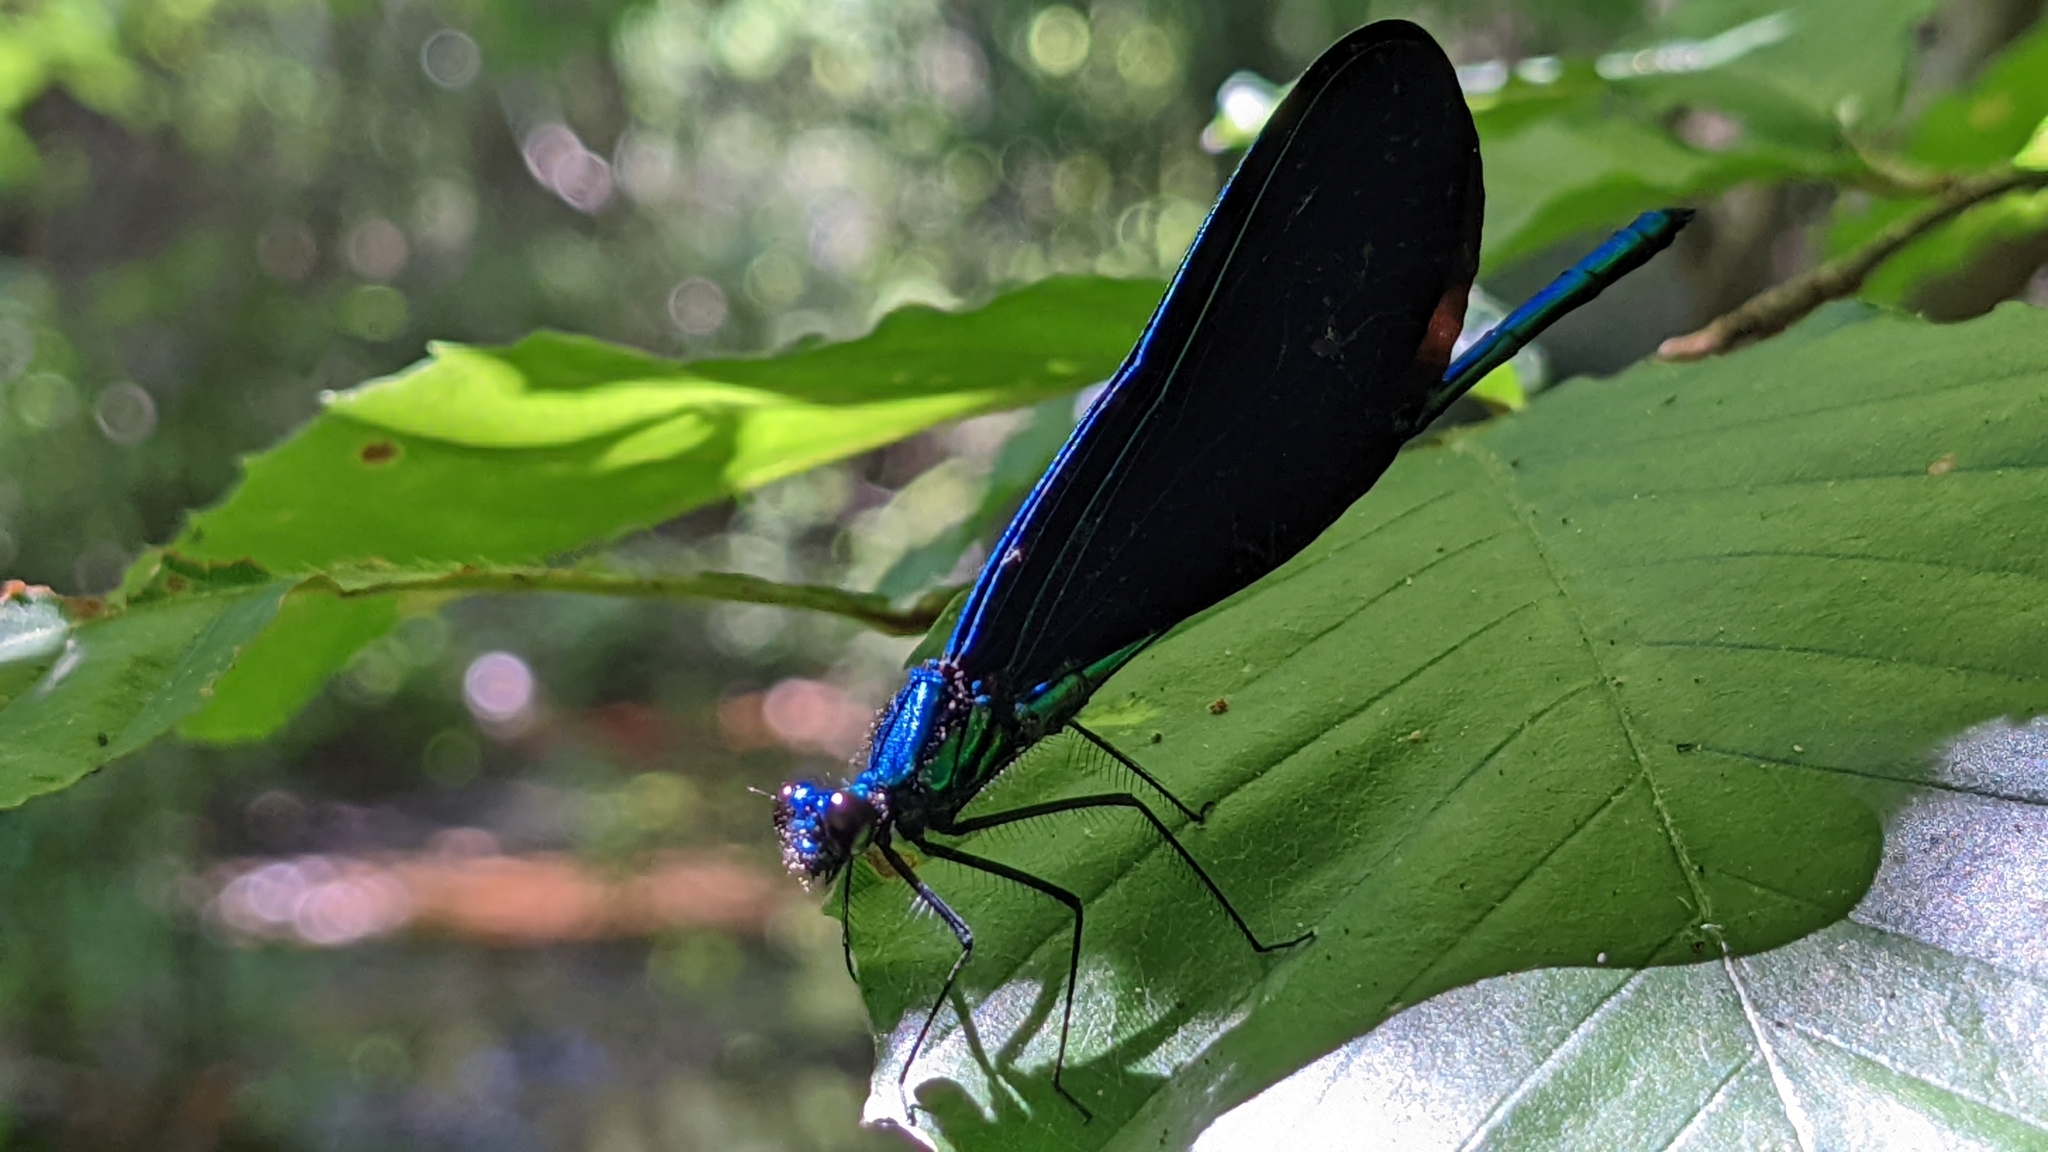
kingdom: Animalia
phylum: Arthropoda
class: Insecta
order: Odonata
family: Calopterygidae
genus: Calopteryx
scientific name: Calopteryx maculata
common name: Ebony jewelwing
